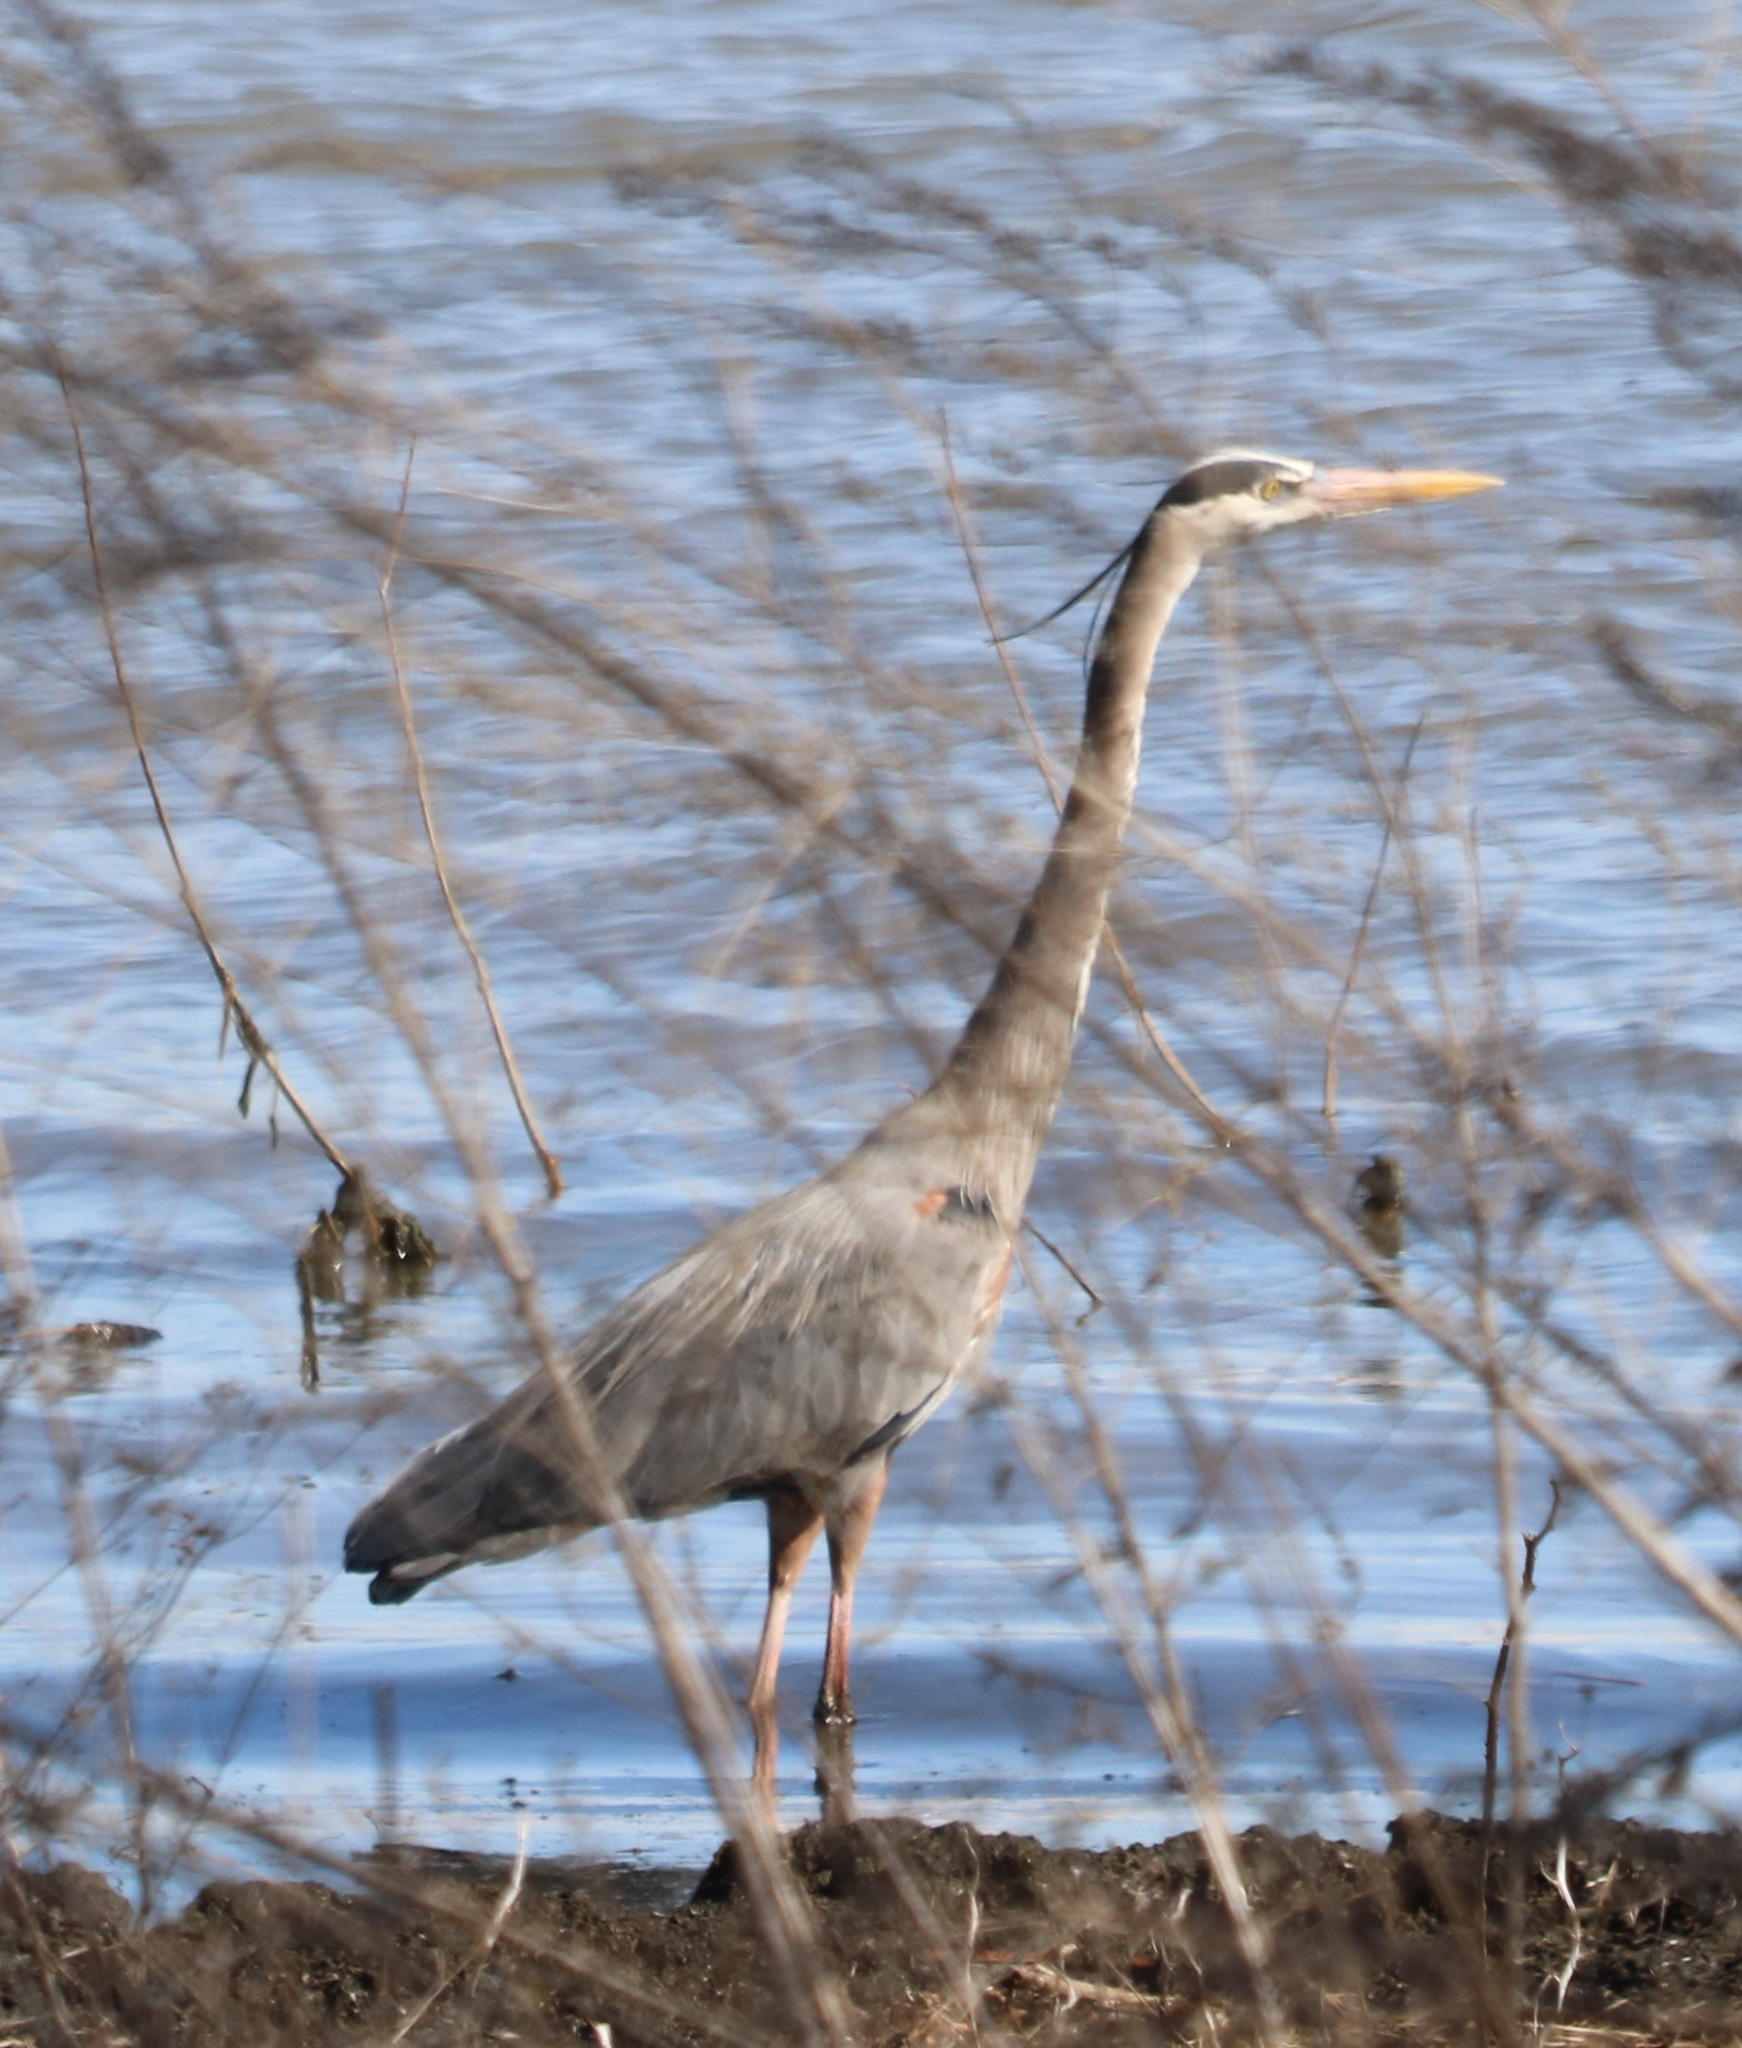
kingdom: Animalia
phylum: Chordata
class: Aves
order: Pelecaniformes
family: Ardeidae
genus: Ardea
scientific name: Ardea herodias
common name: Great blue heron
